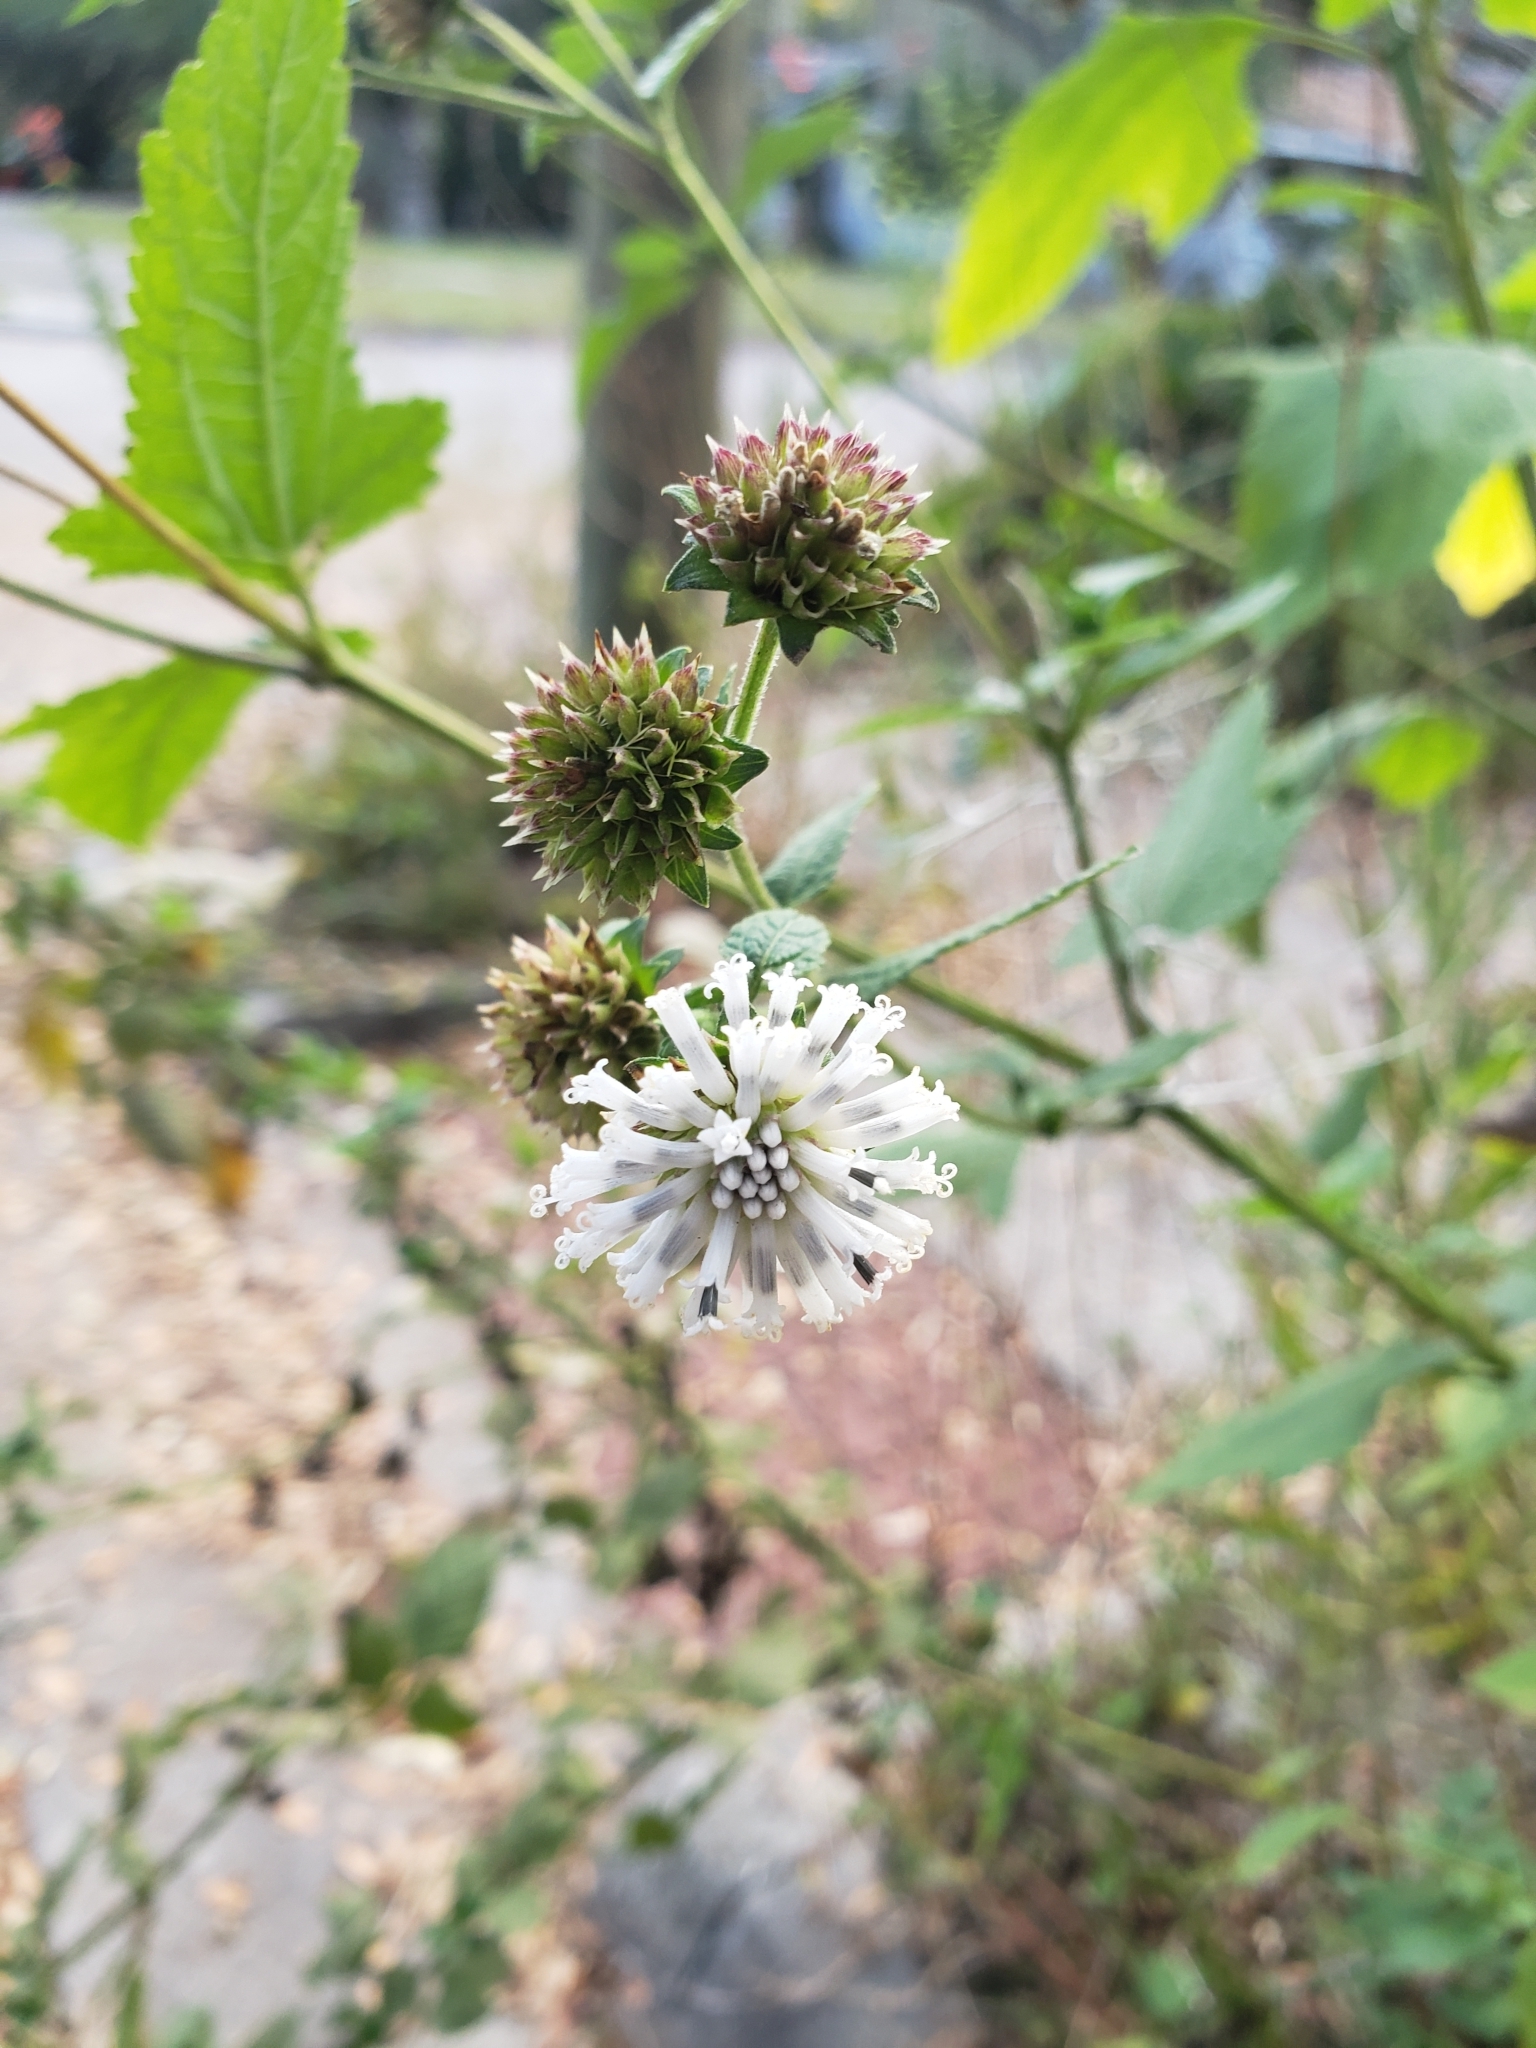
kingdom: Plantae
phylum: Tracheophyta
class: Magnoliopsida
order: Asterales
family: Asteraceae
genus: Melanthera
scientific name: Melanthera nivea
